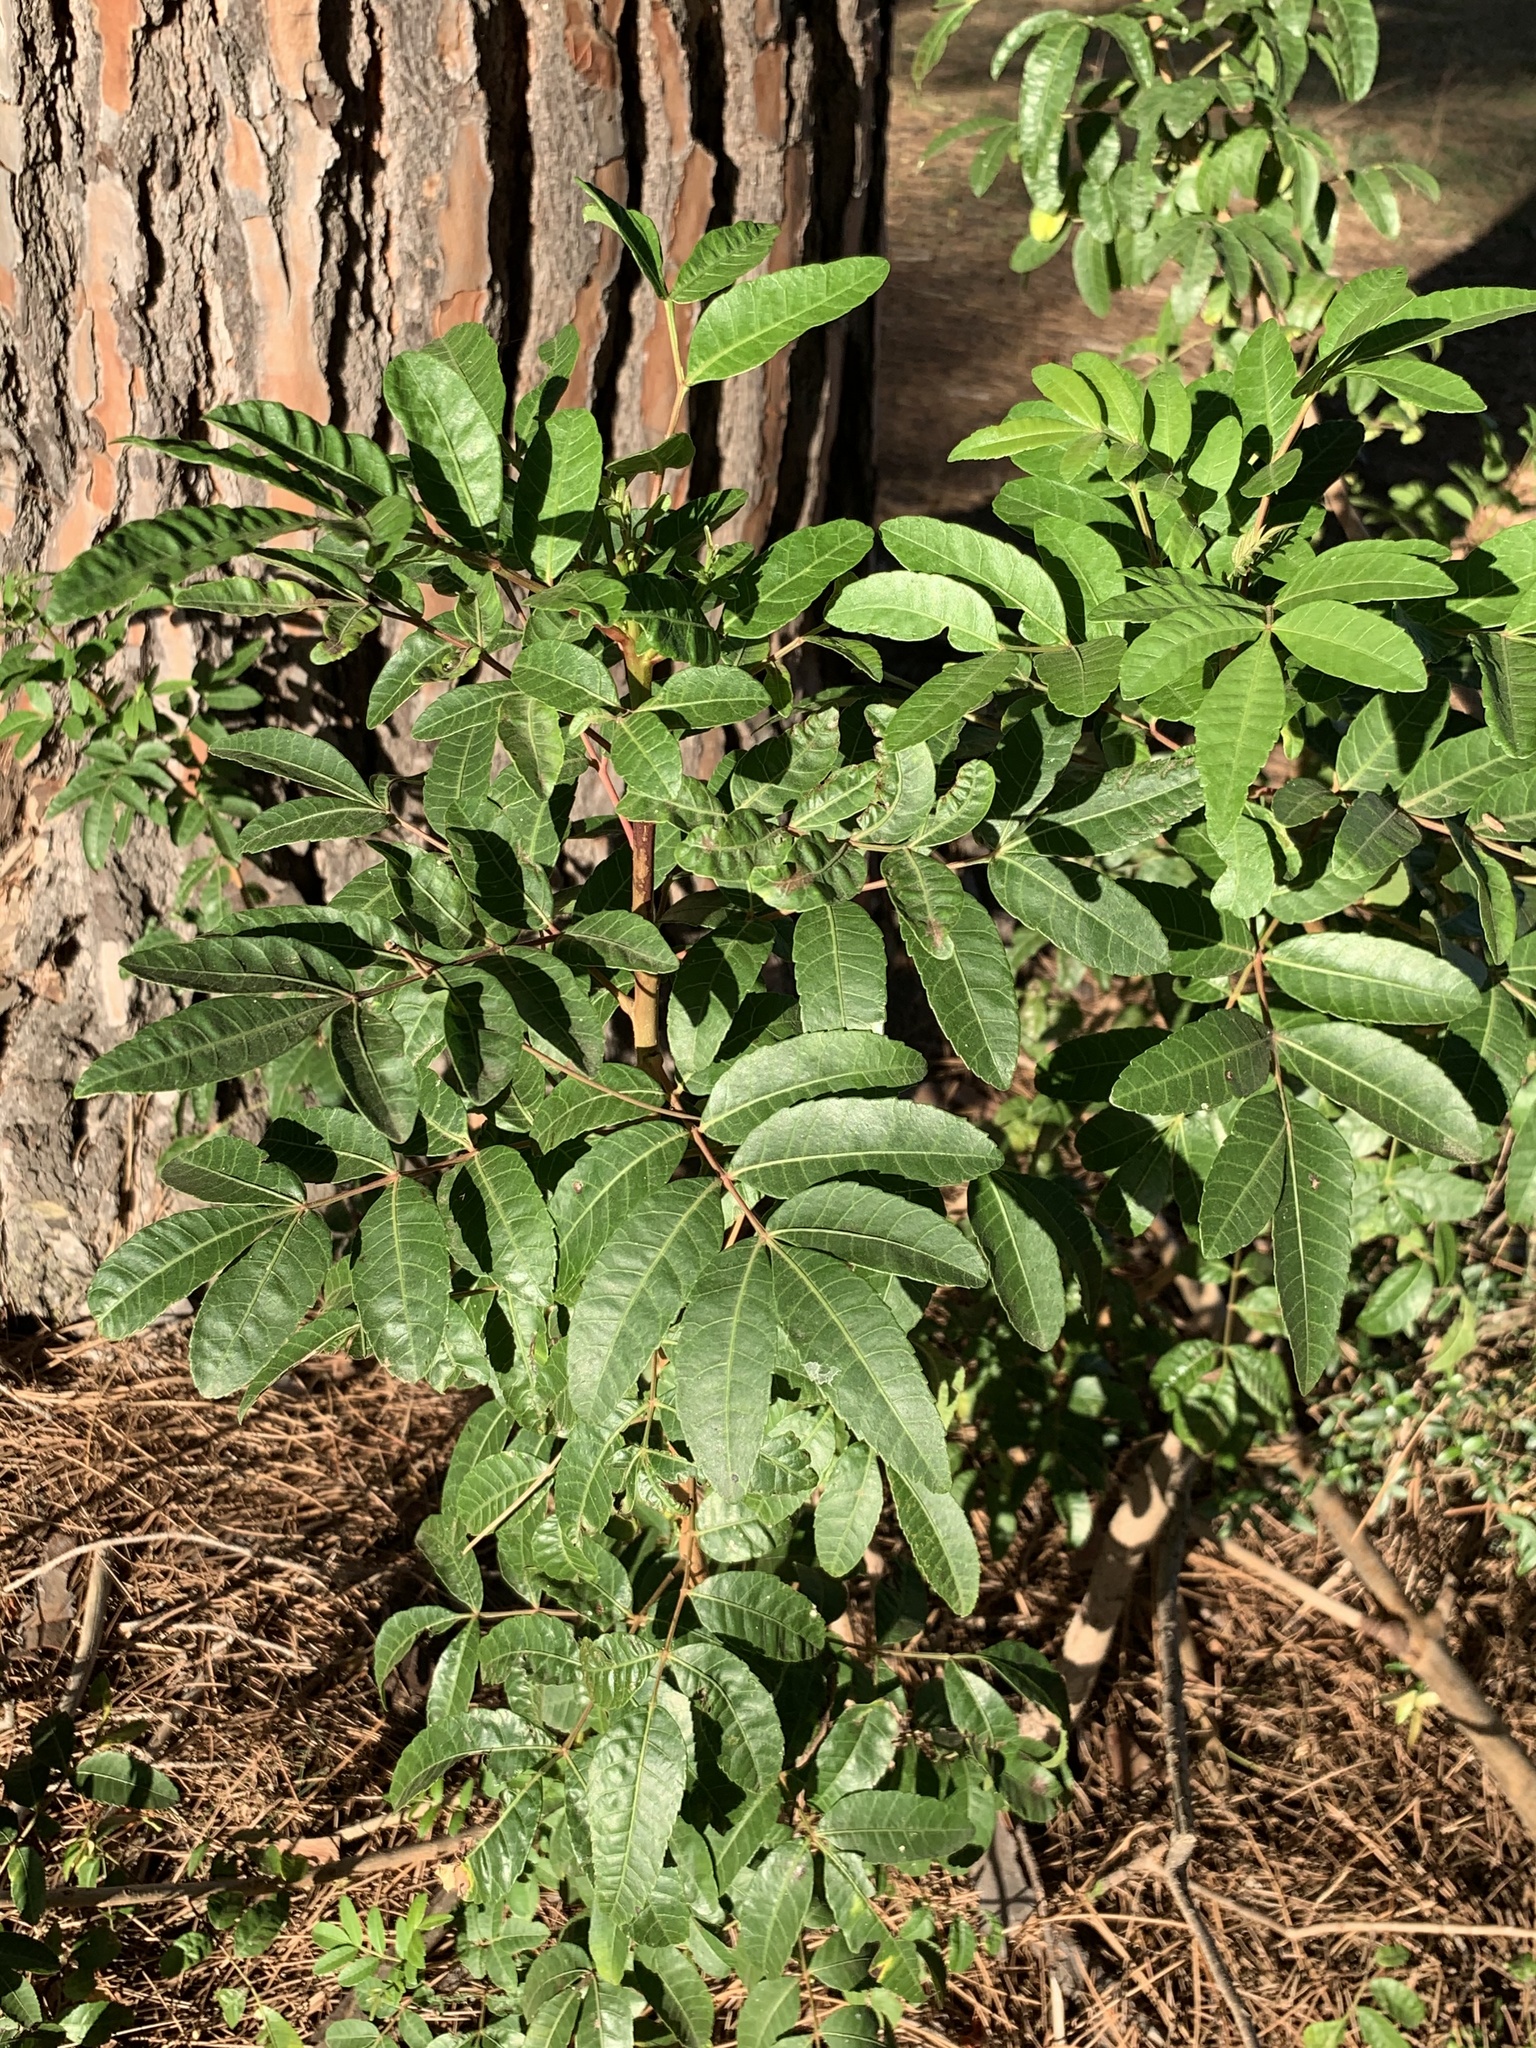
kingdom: Plantae
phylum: Tracheophyta
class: Magnoliopsida
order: Sapindales
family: Anacardiaceae
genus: Schinus
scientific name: Schinus terebinthifolia
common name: Brazilian peppertree
